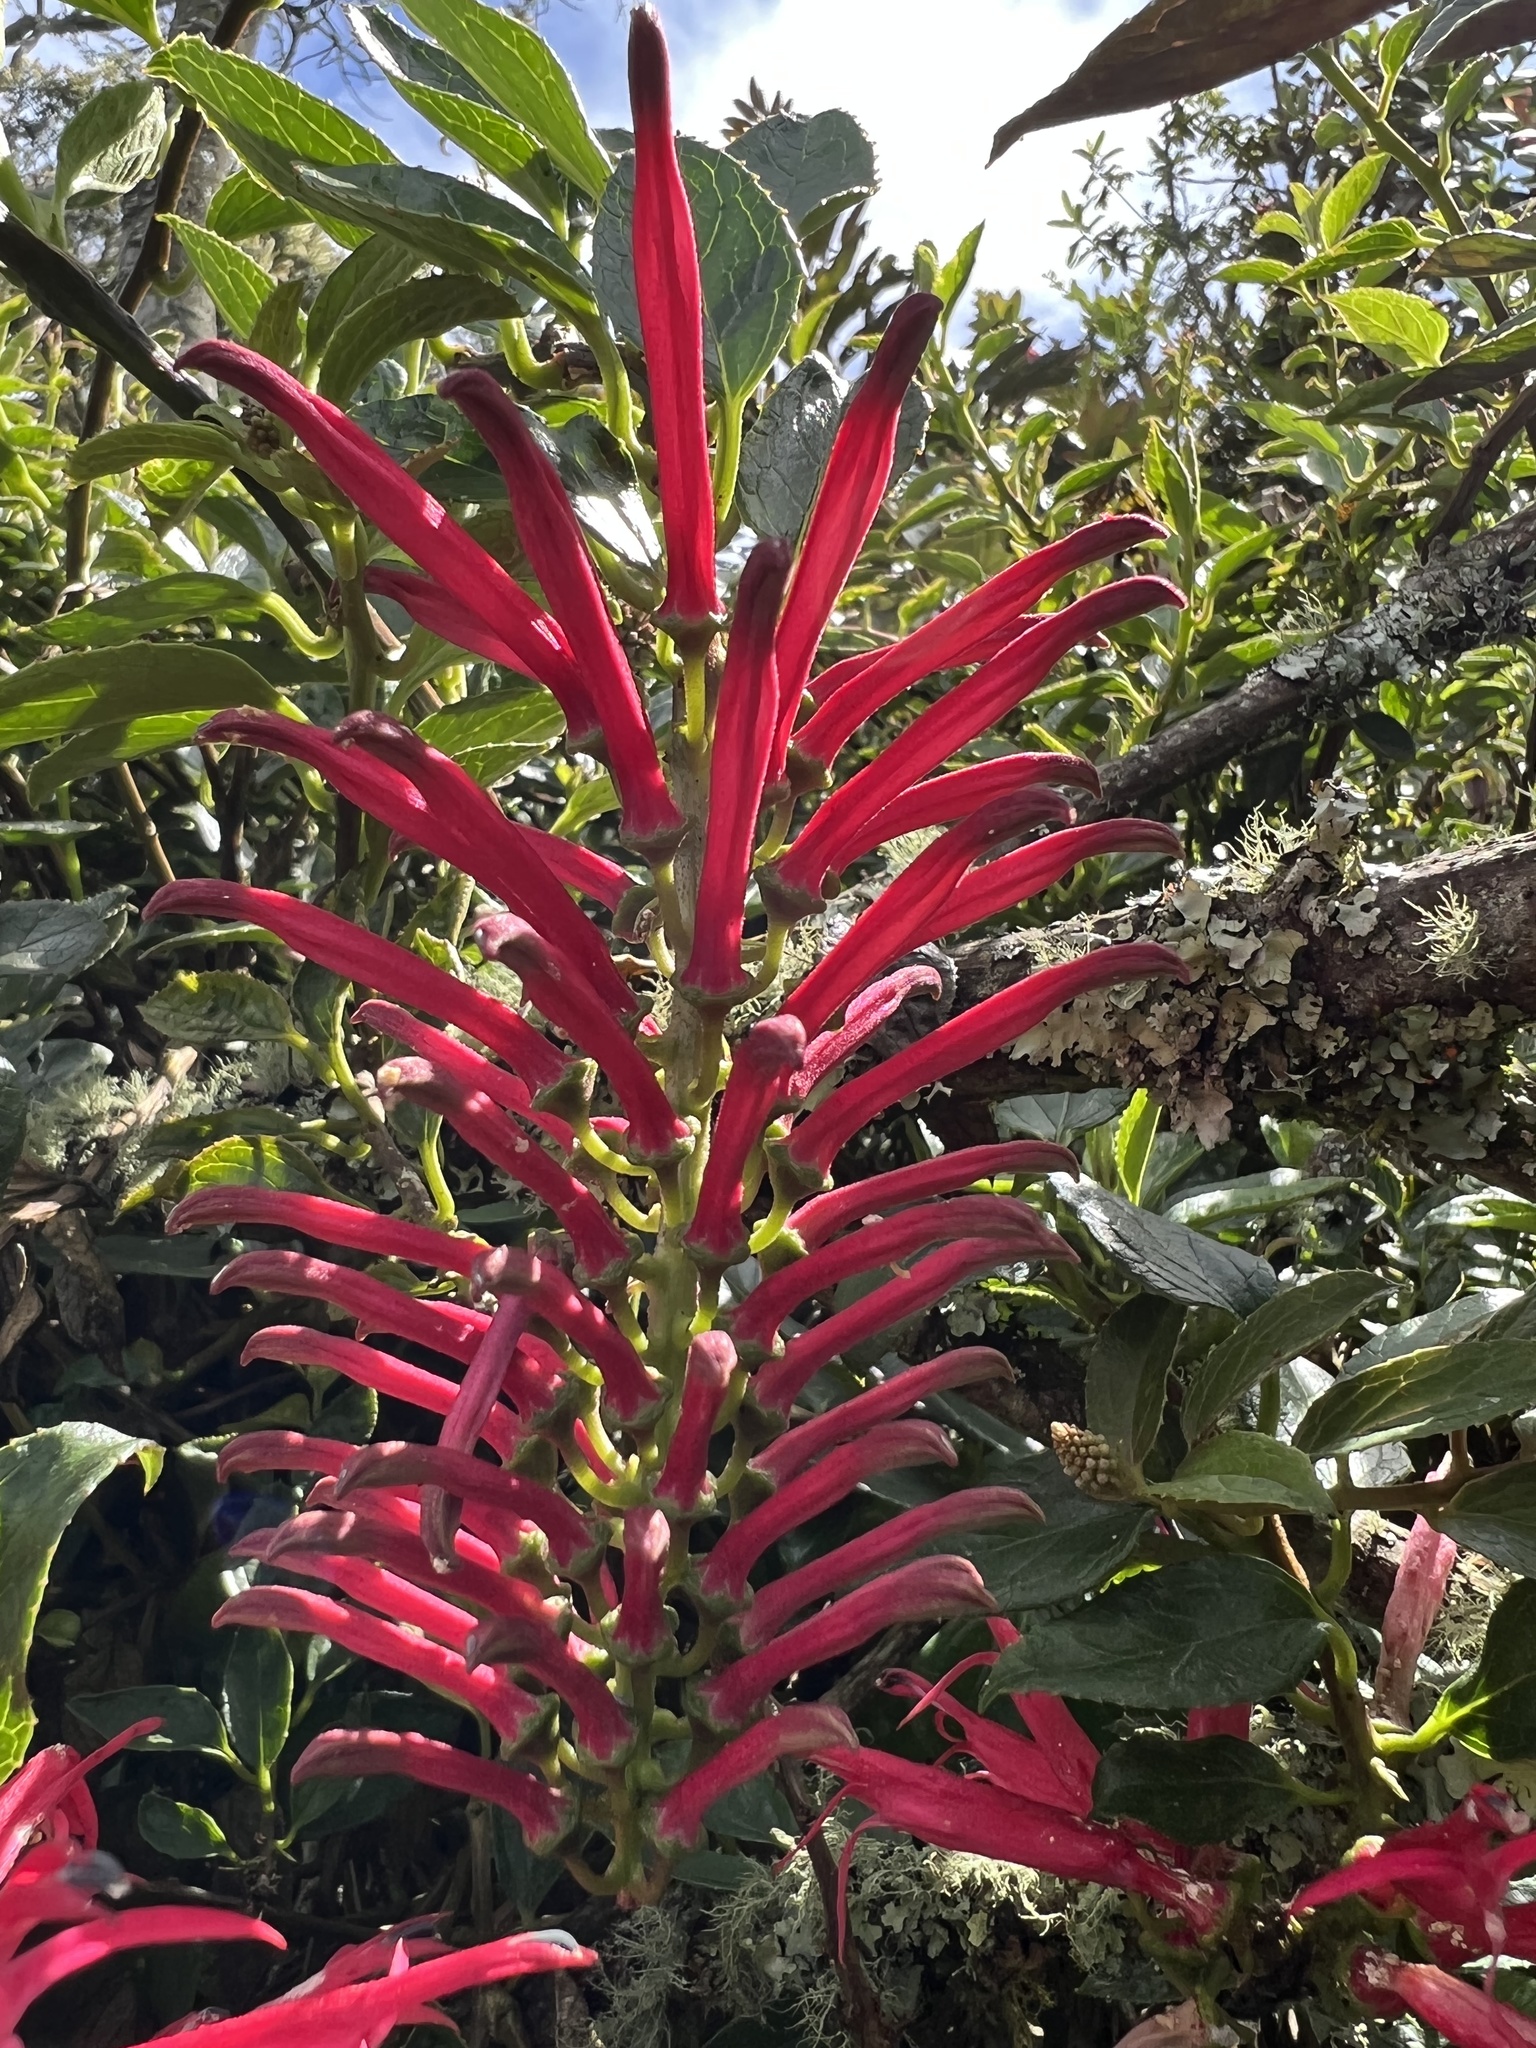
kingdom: Plantae
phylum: Tracheophyta
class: Magnoliopsida
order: Asterales
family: Campanulaceae
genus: Siphocampylus
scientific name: Siphocampylus retrorsus
